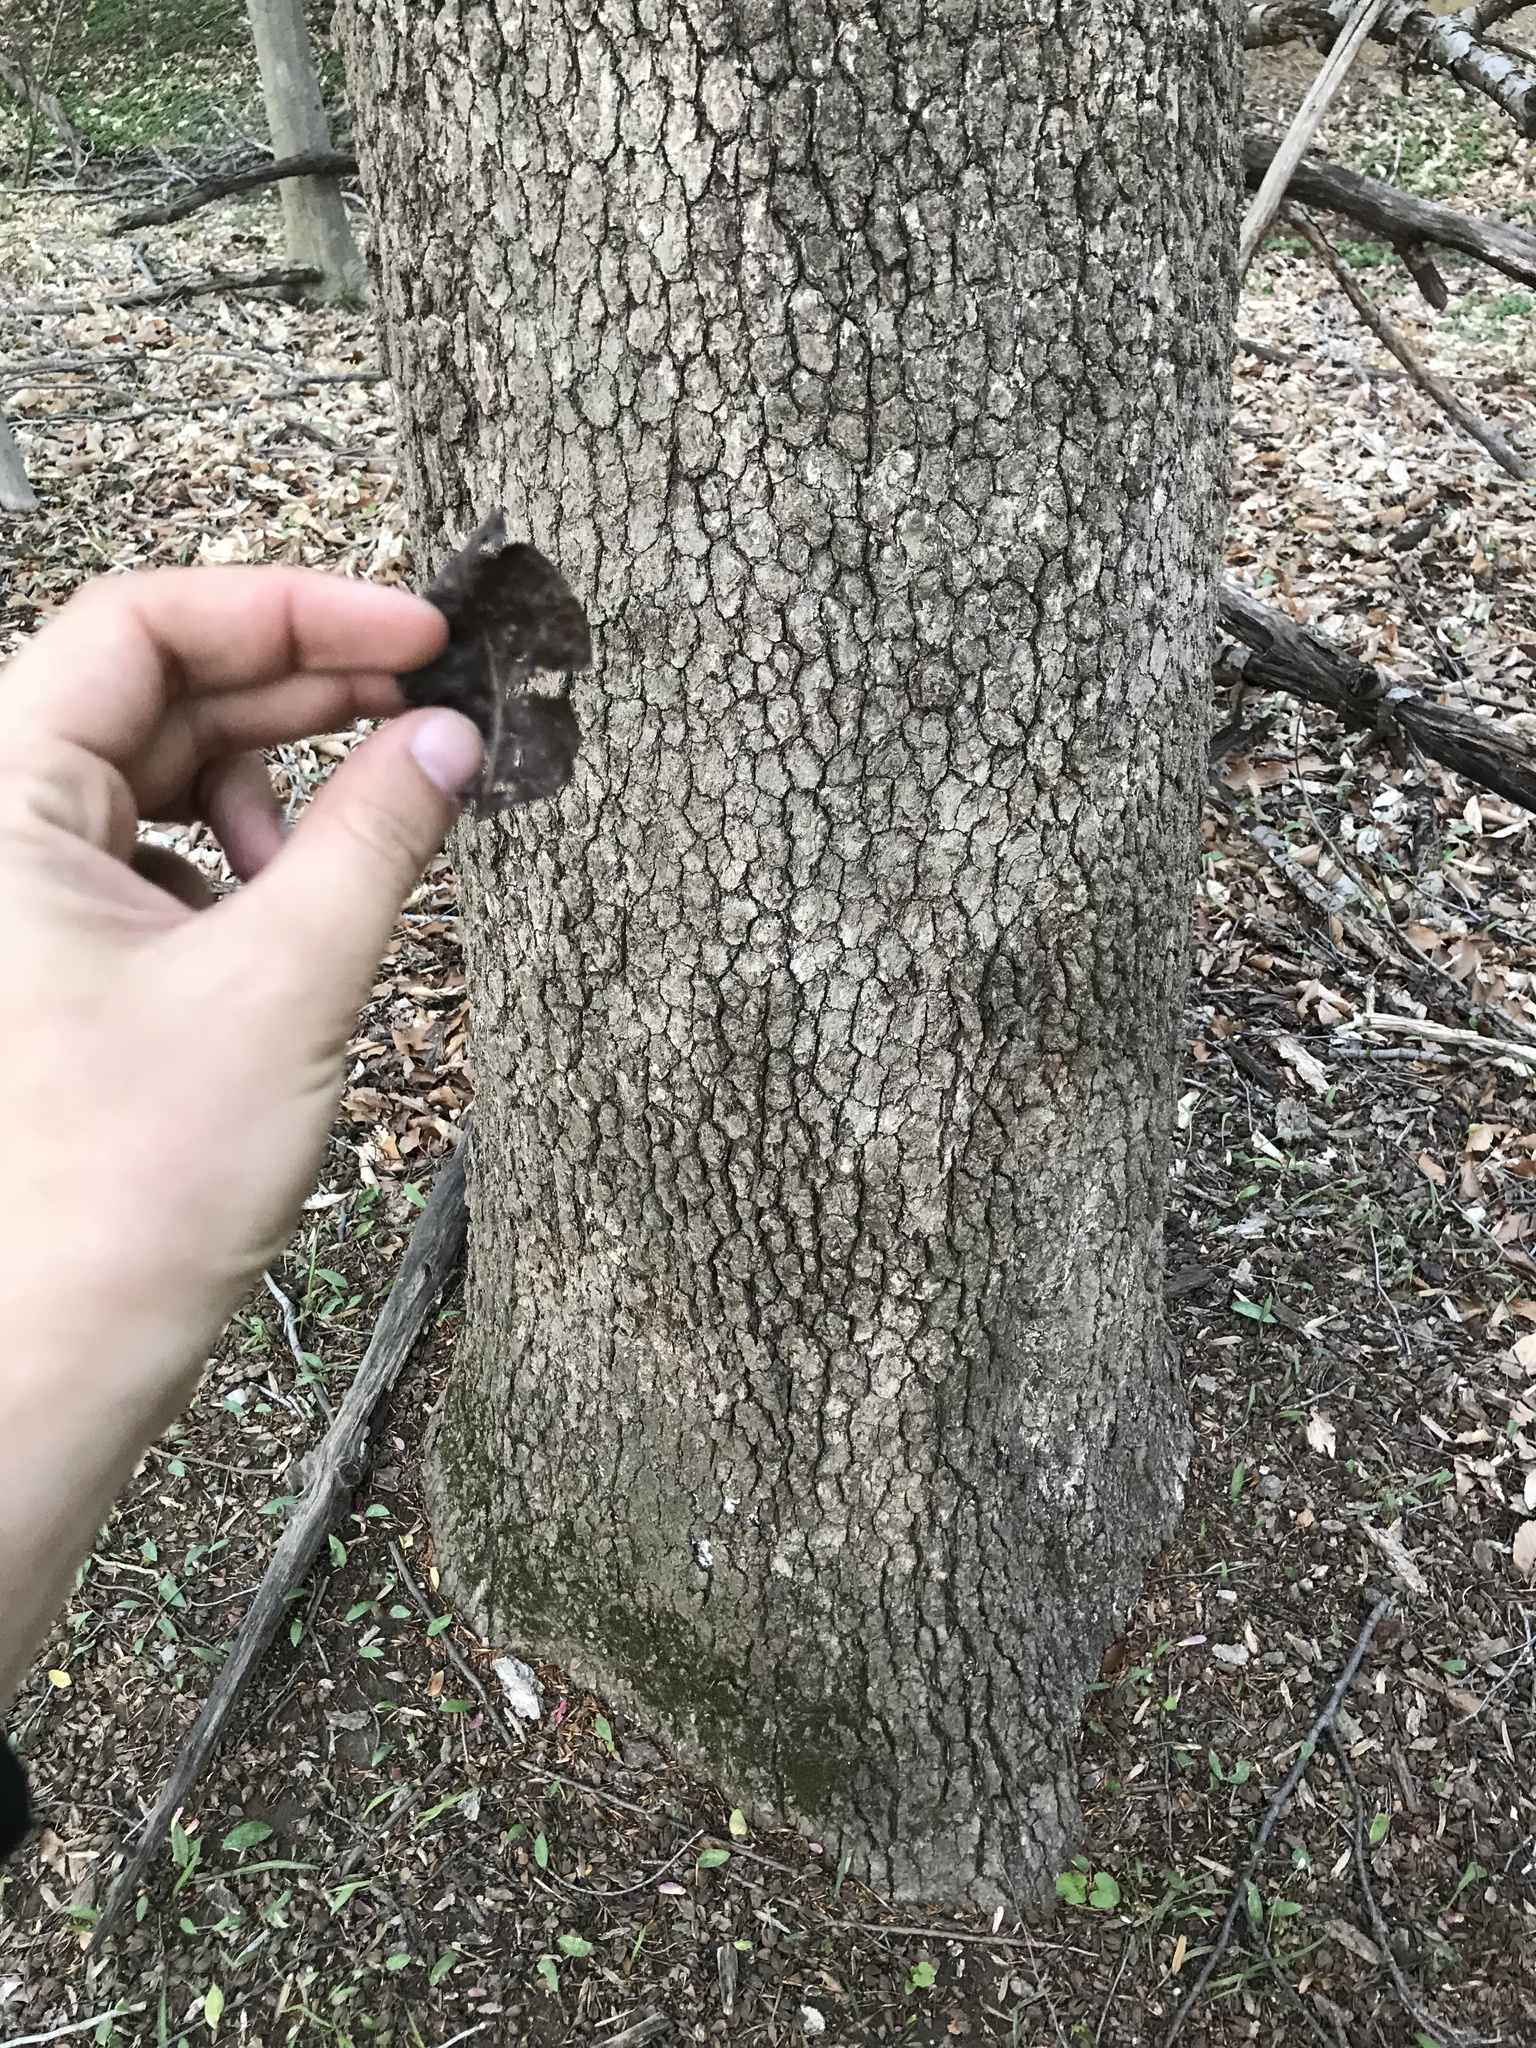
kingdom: Plantae
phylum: Tracheophyta
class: Magnoliopsida
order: Cornales
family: Nyssaceae
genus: Nyssa
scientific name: Nyssa sylvatica
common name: Black tupelo
